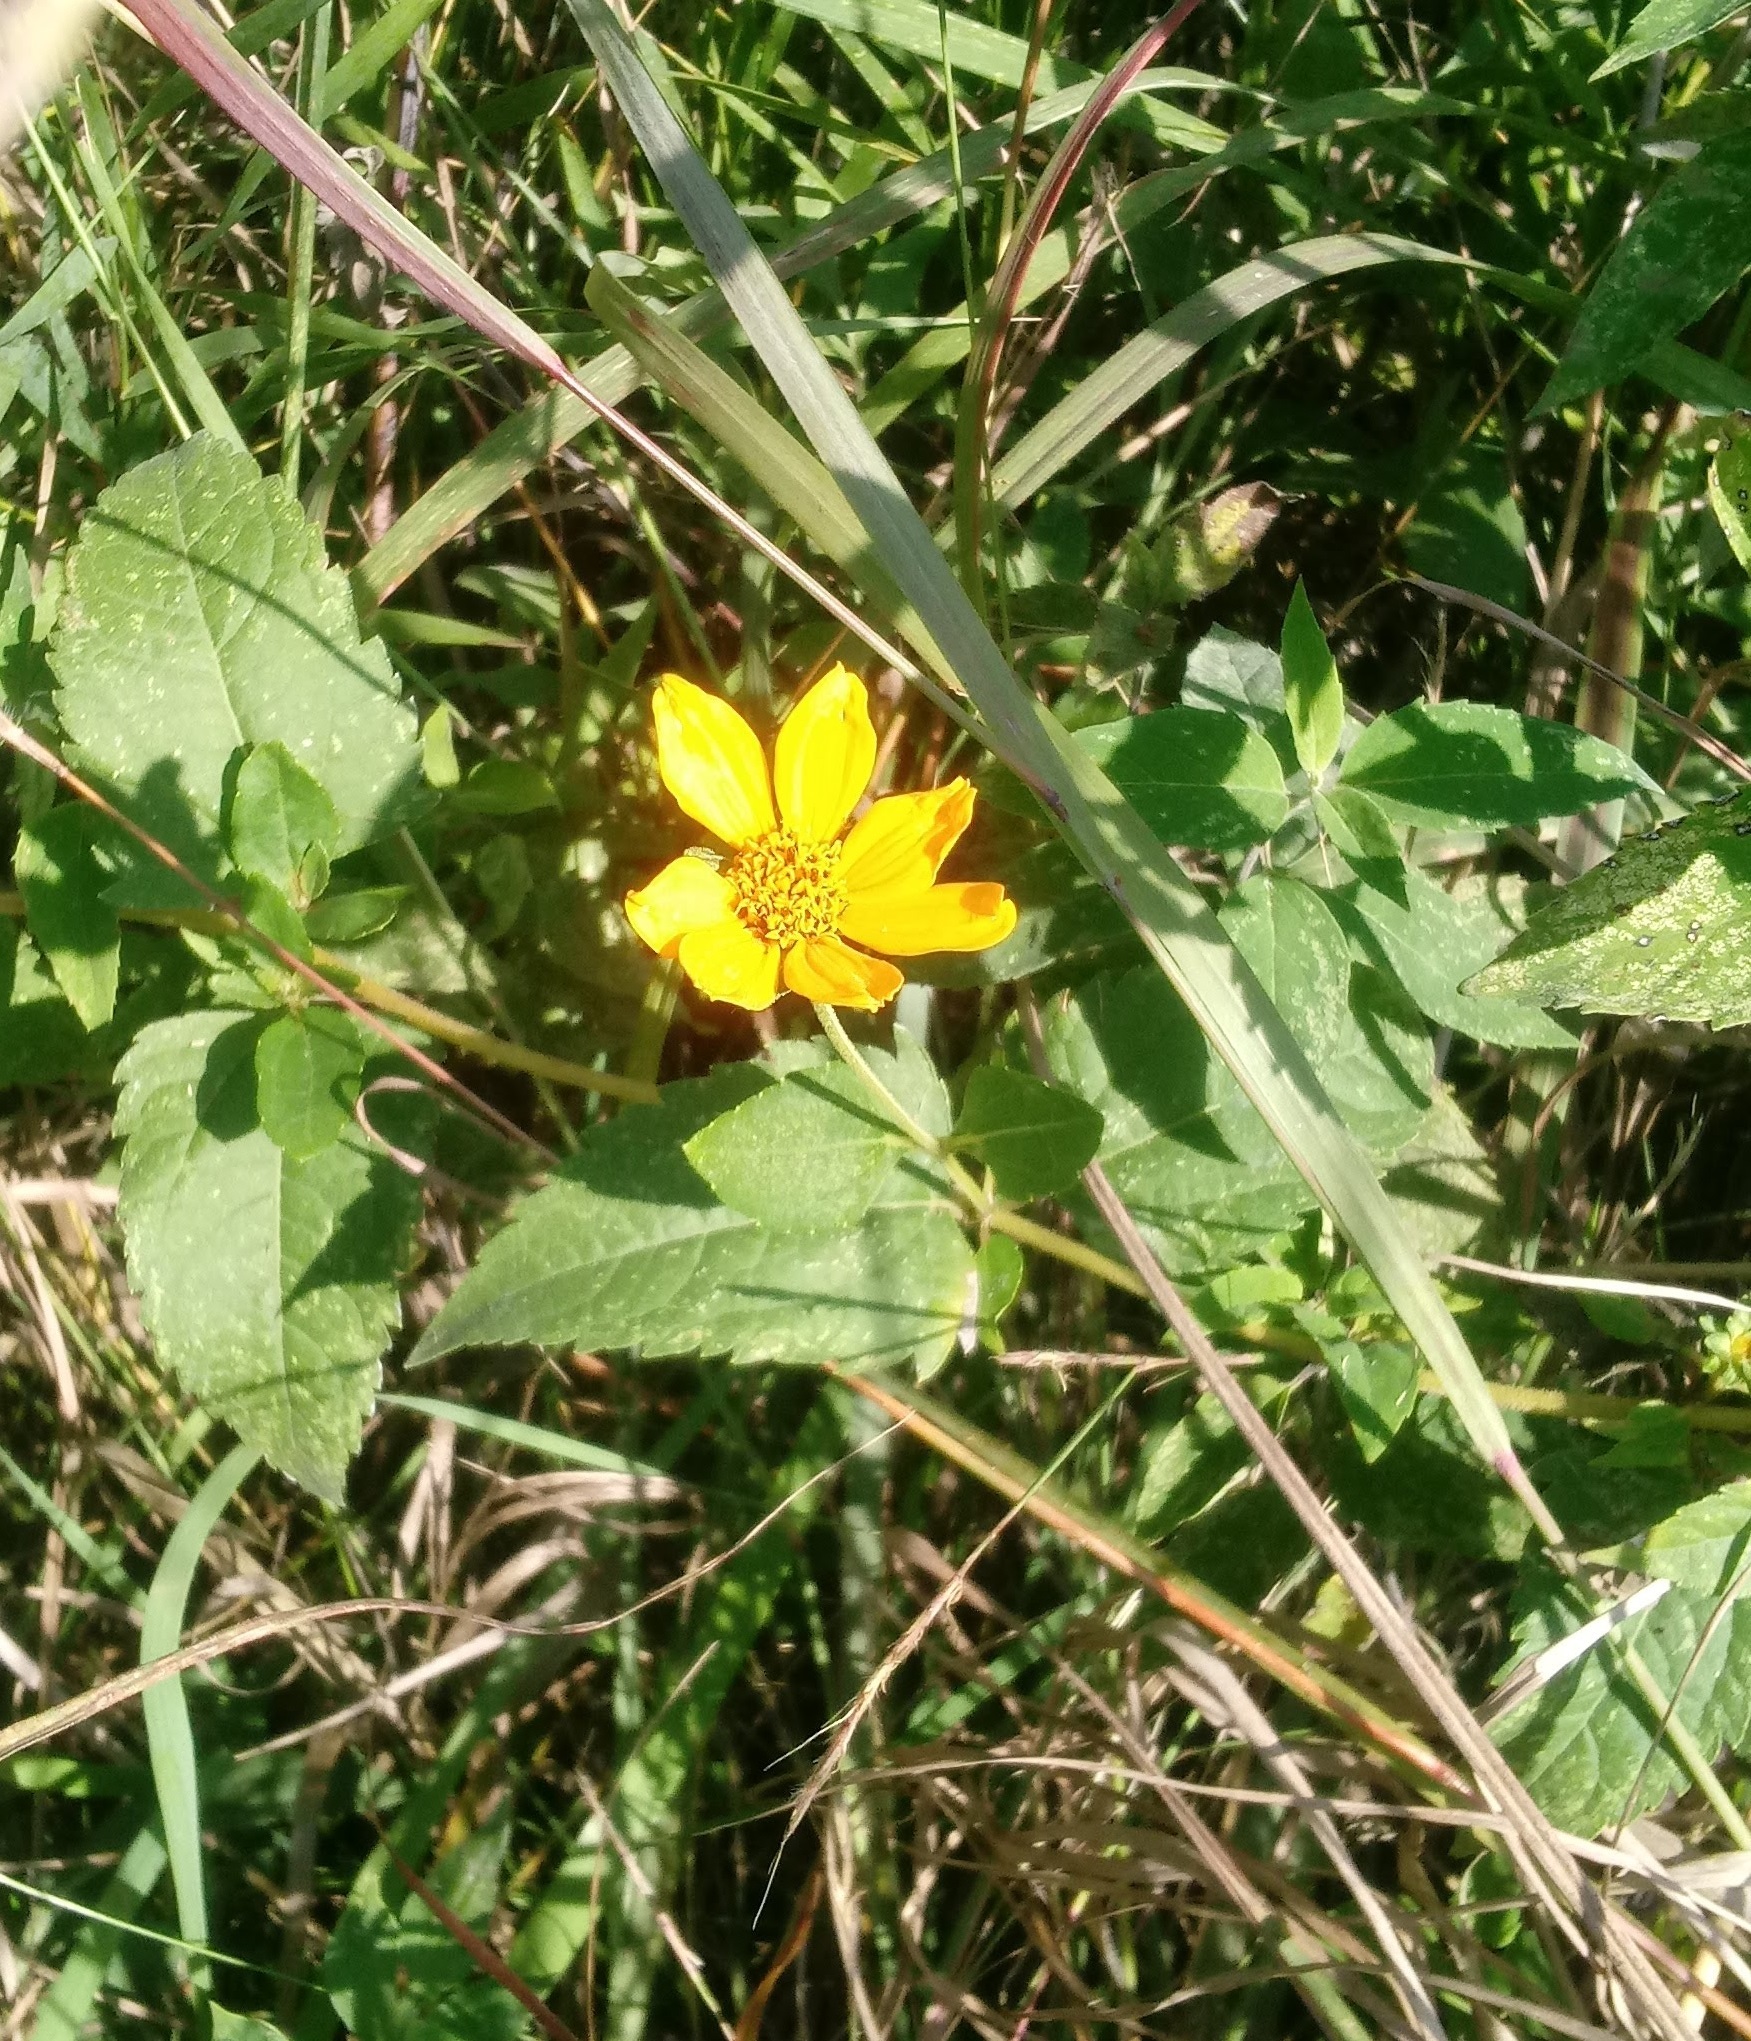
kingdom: Plantae
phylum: Tracheophyta
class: Magnoliopsida
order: Asterales
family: Asteraceae
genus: Heliopsis
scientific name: Heliopsis helianthoides
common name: False sunflower
